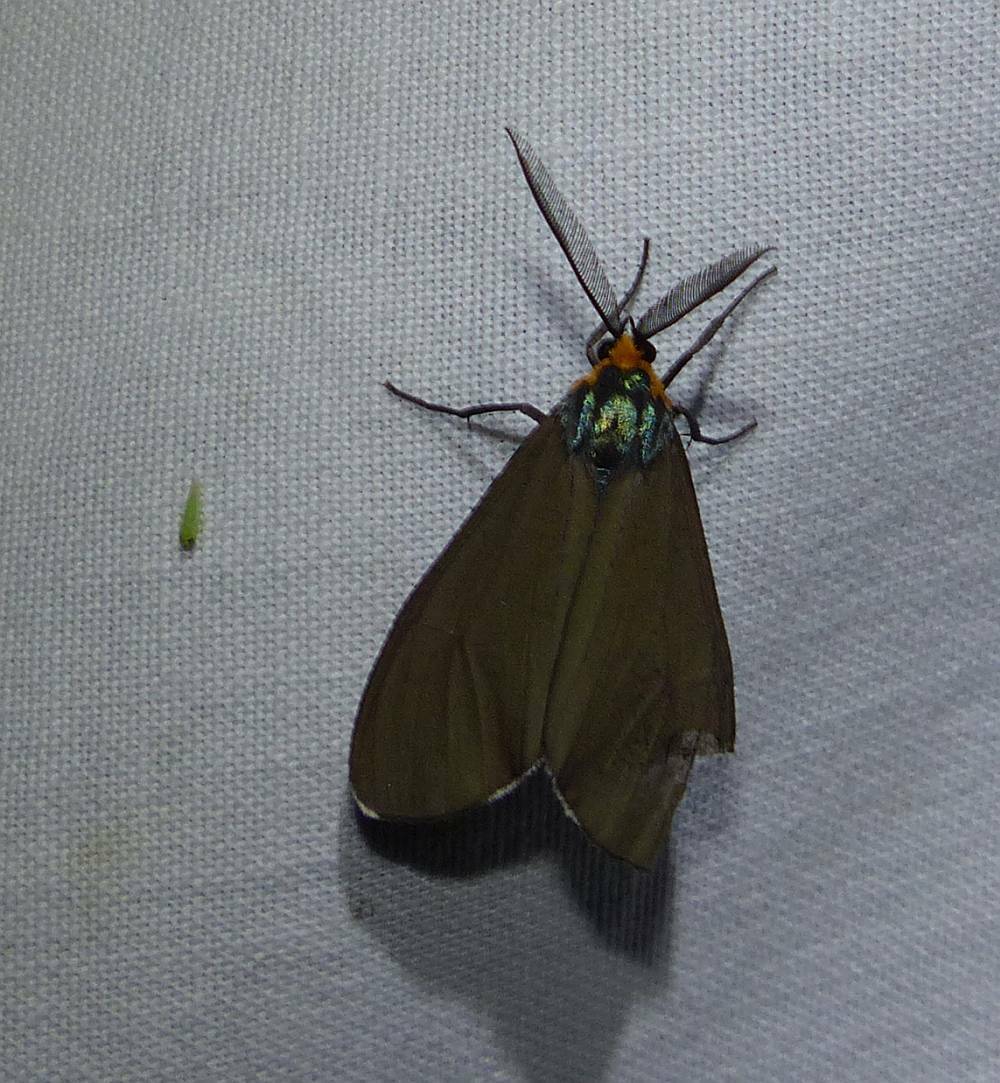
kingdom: Animalia
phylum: Arthropoda
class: Insecta
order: Lepidoptera
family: Erebidae
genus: Ctenucha
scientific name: Ctenucha virginica
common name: Virginia ctenucha moth
